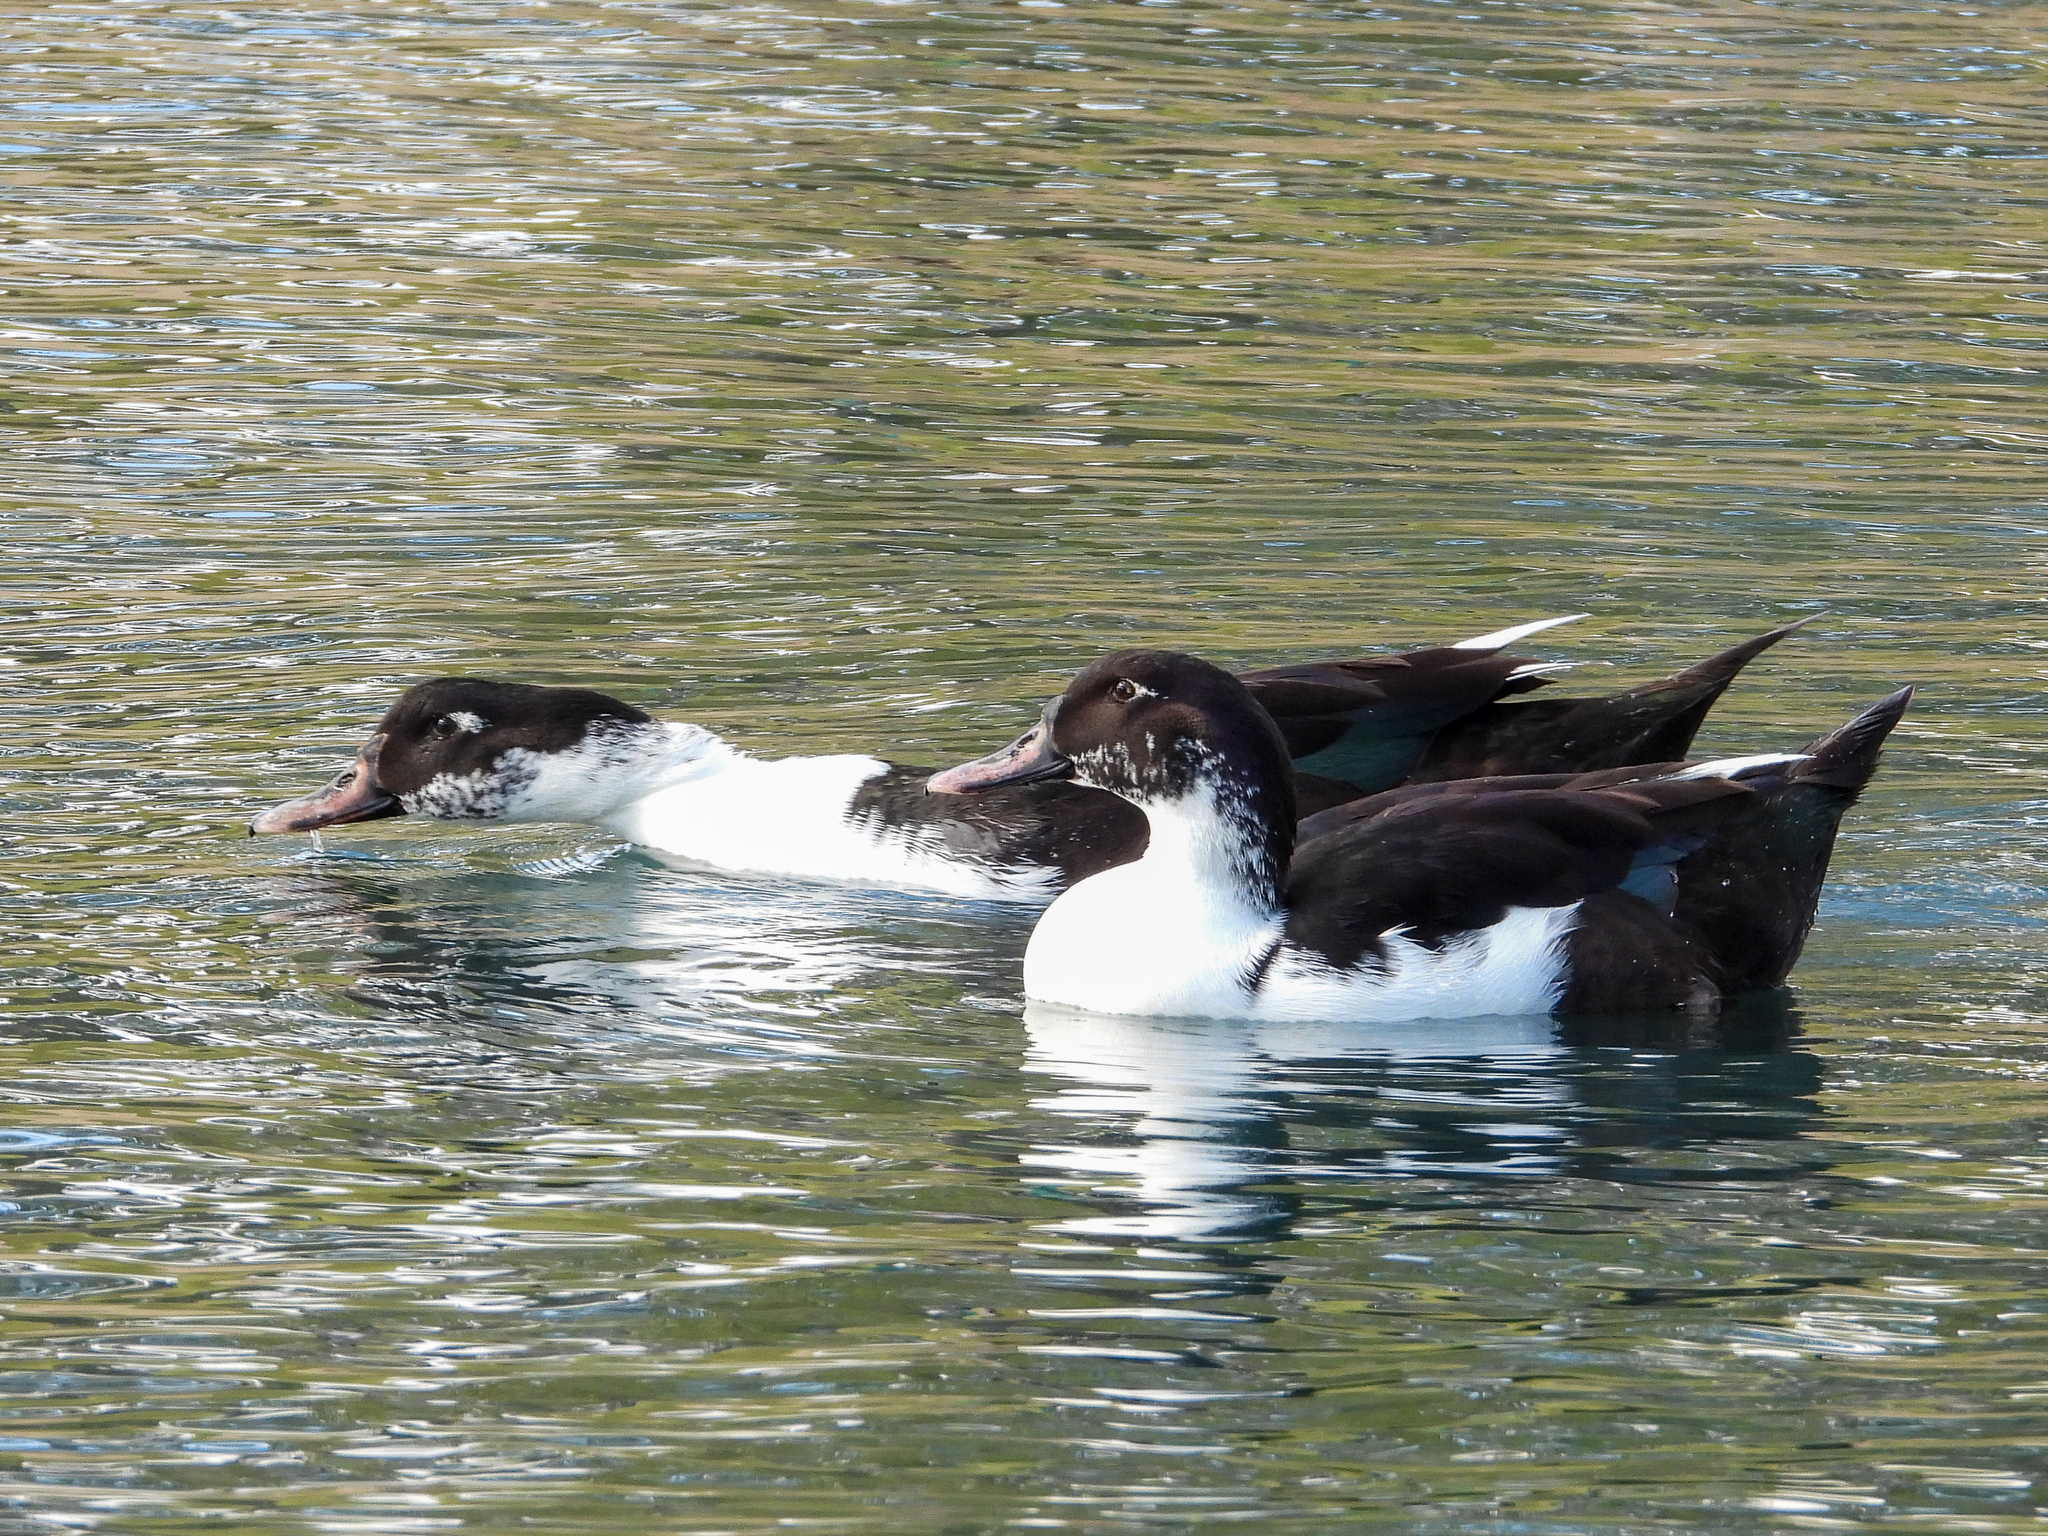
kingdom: Animalia
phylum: Chordata
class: Aves
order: Anseriformes
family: Anatidae
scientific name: Anatidae
